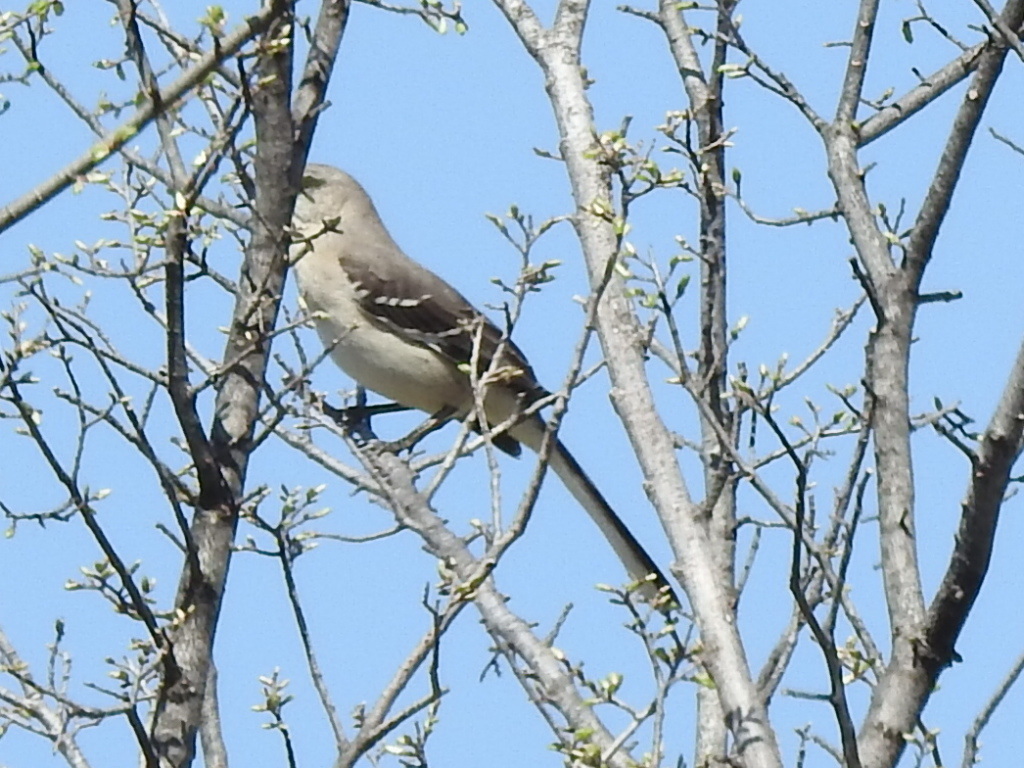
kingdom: Animalia
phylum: Chordata
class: Aves
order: Passeriformes
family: Mimidae
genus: Mimus
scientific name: Mimus polyglottos
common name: Northern mockingbird
